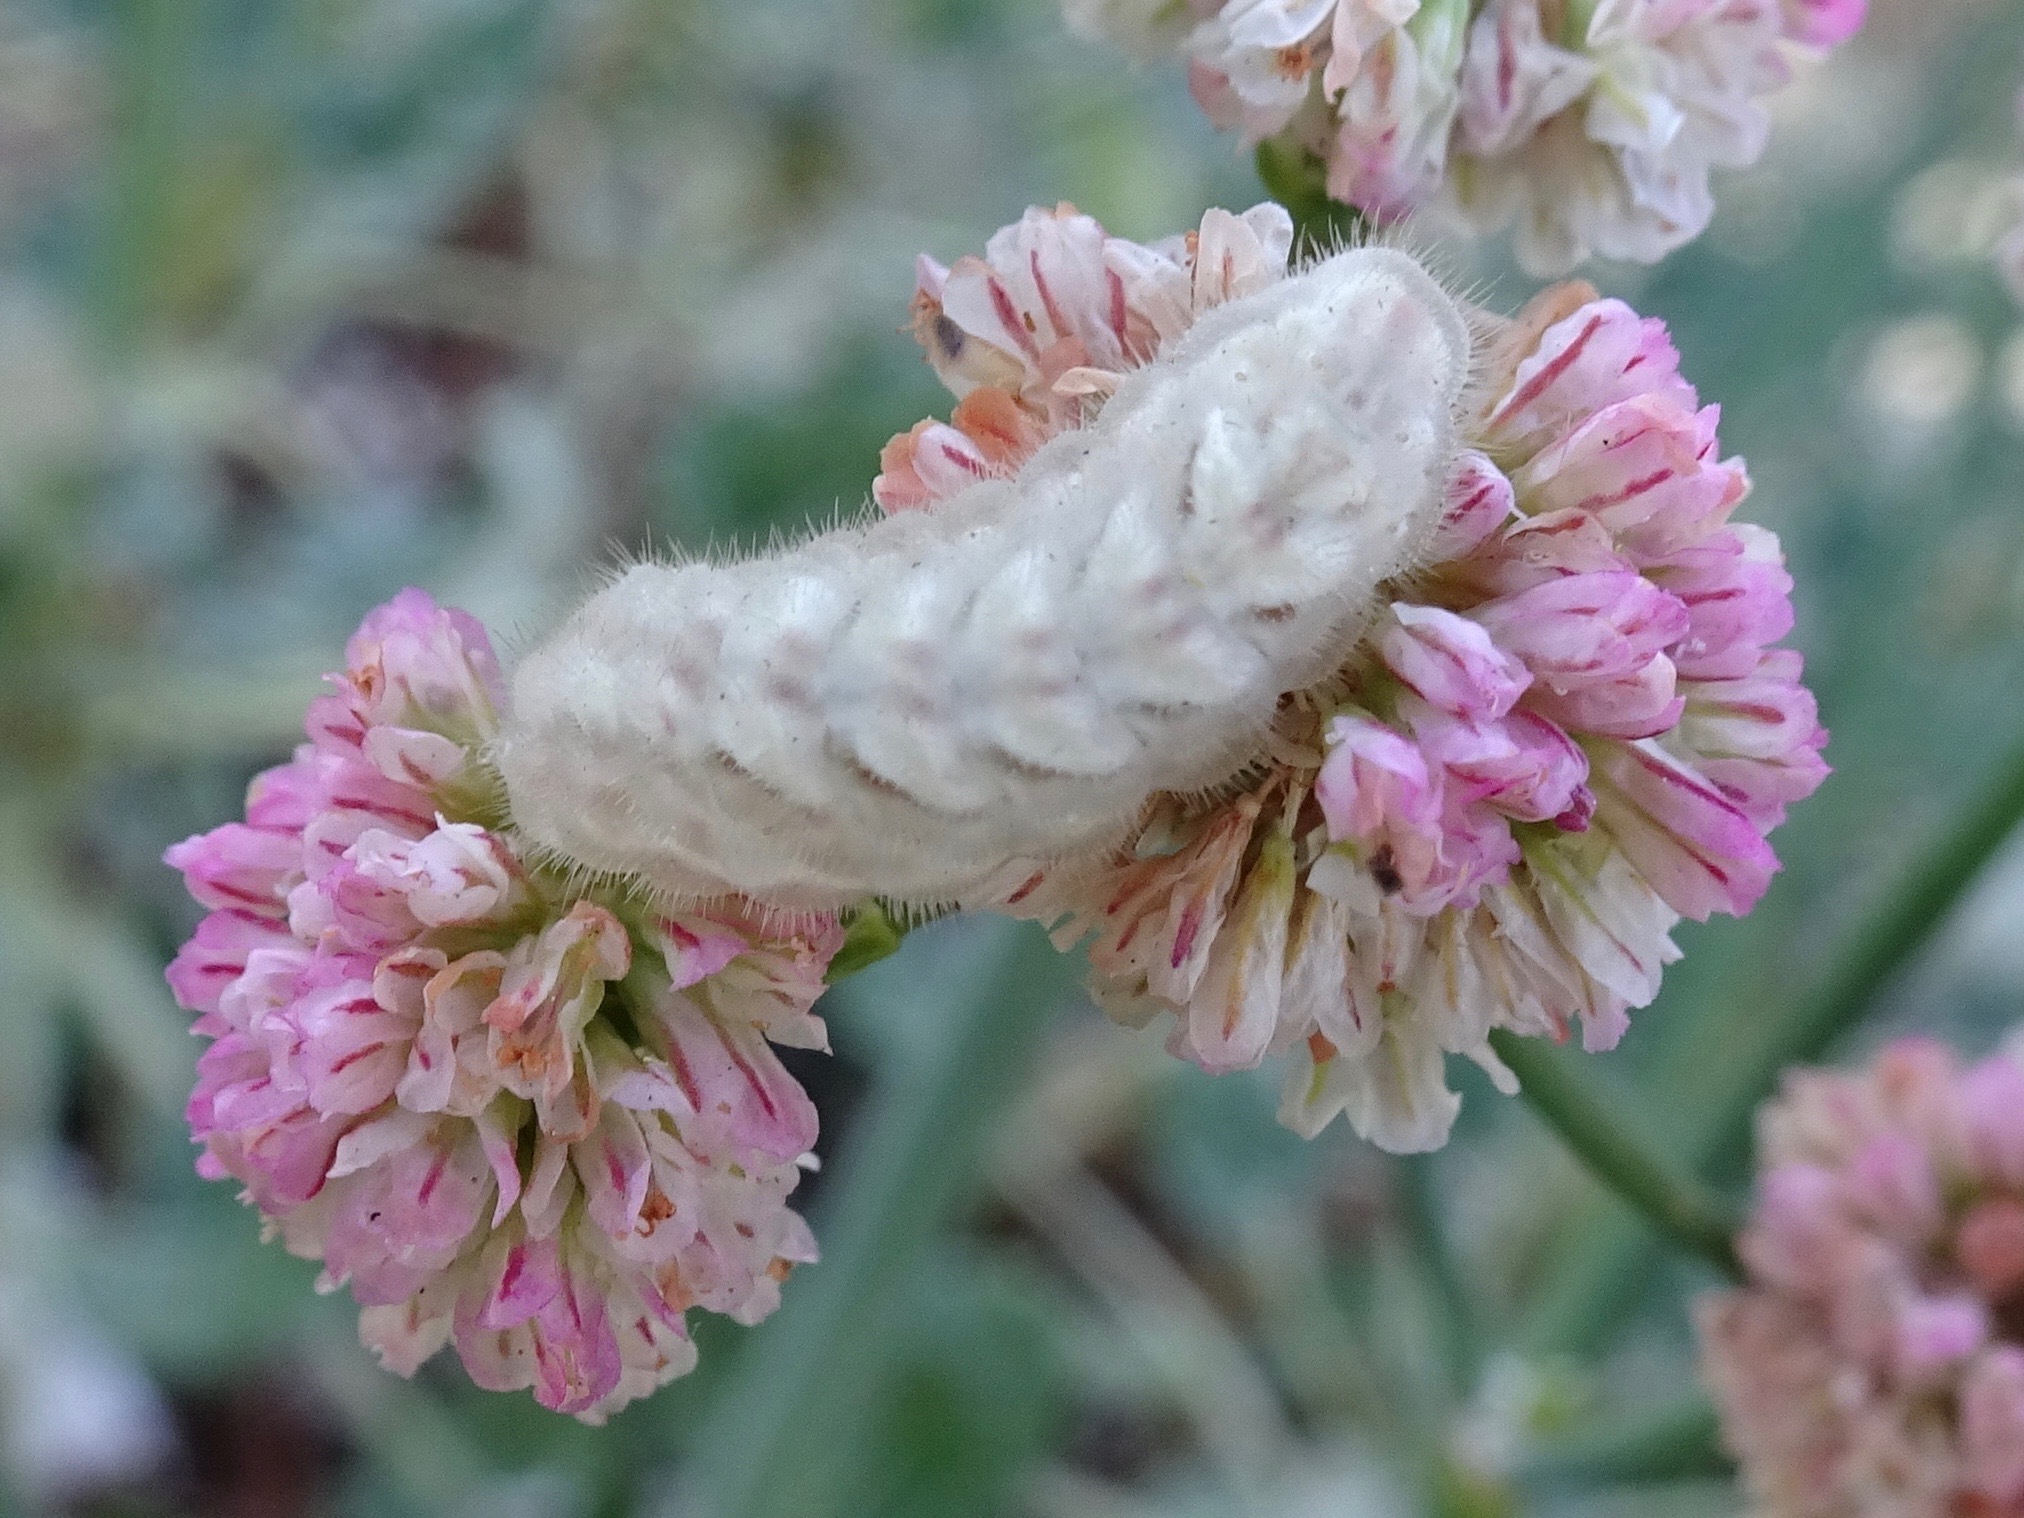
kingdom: Animalia
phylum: Arthropoda
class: Insecta
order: Lepidoptera
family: Lycaenidae
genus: Strymon
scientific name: Strymon melinus
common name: Gray hairstreak
